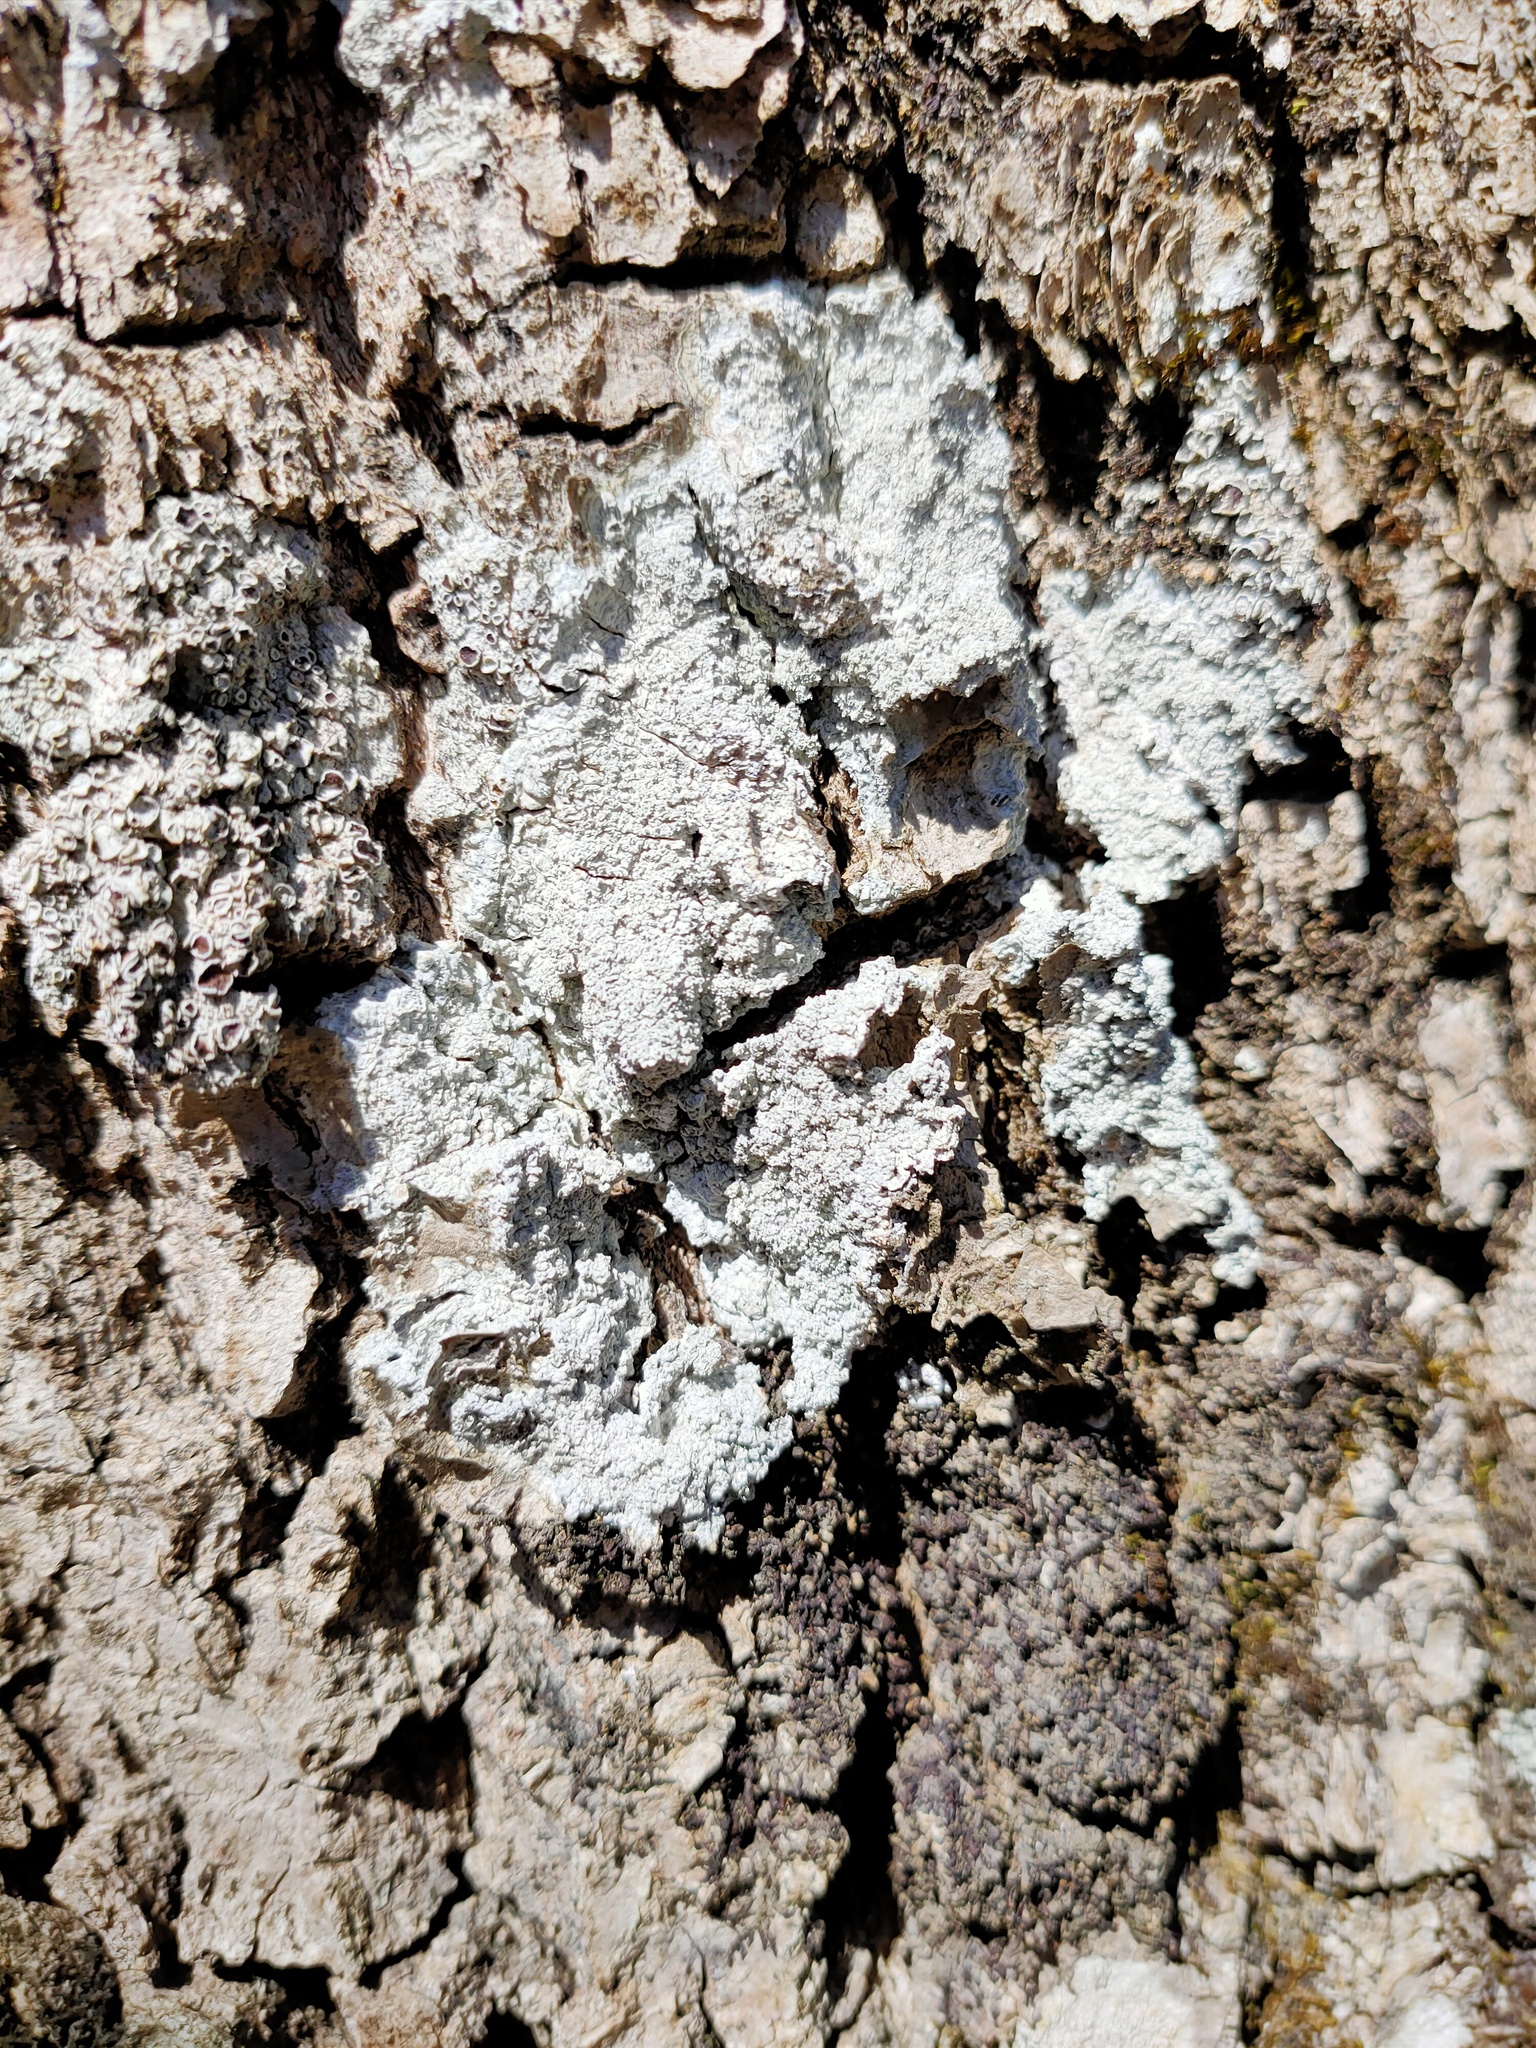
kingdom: Fungi
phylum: Ascomycota
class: Lecanoromycetes
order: Ostropales
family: Phlyctidaceae
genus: Phlyctis
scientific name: Phlyctis argena
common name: Whitewash lichen
